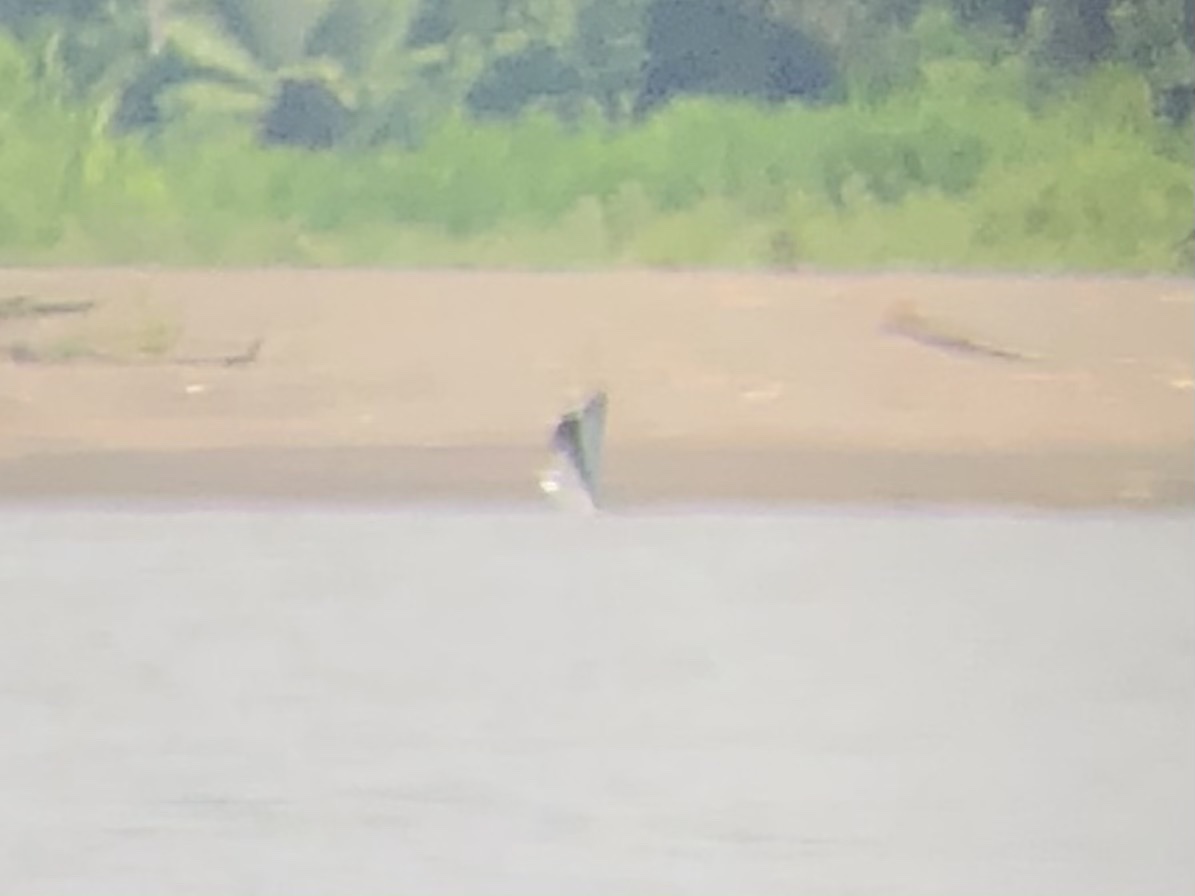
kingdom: Animalia
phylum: Chordata
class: Aves
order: Accipitriformes
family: Accipitridae
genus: Elanoides
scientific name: Elanoides forficatus
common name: Swallow-tailed kite
